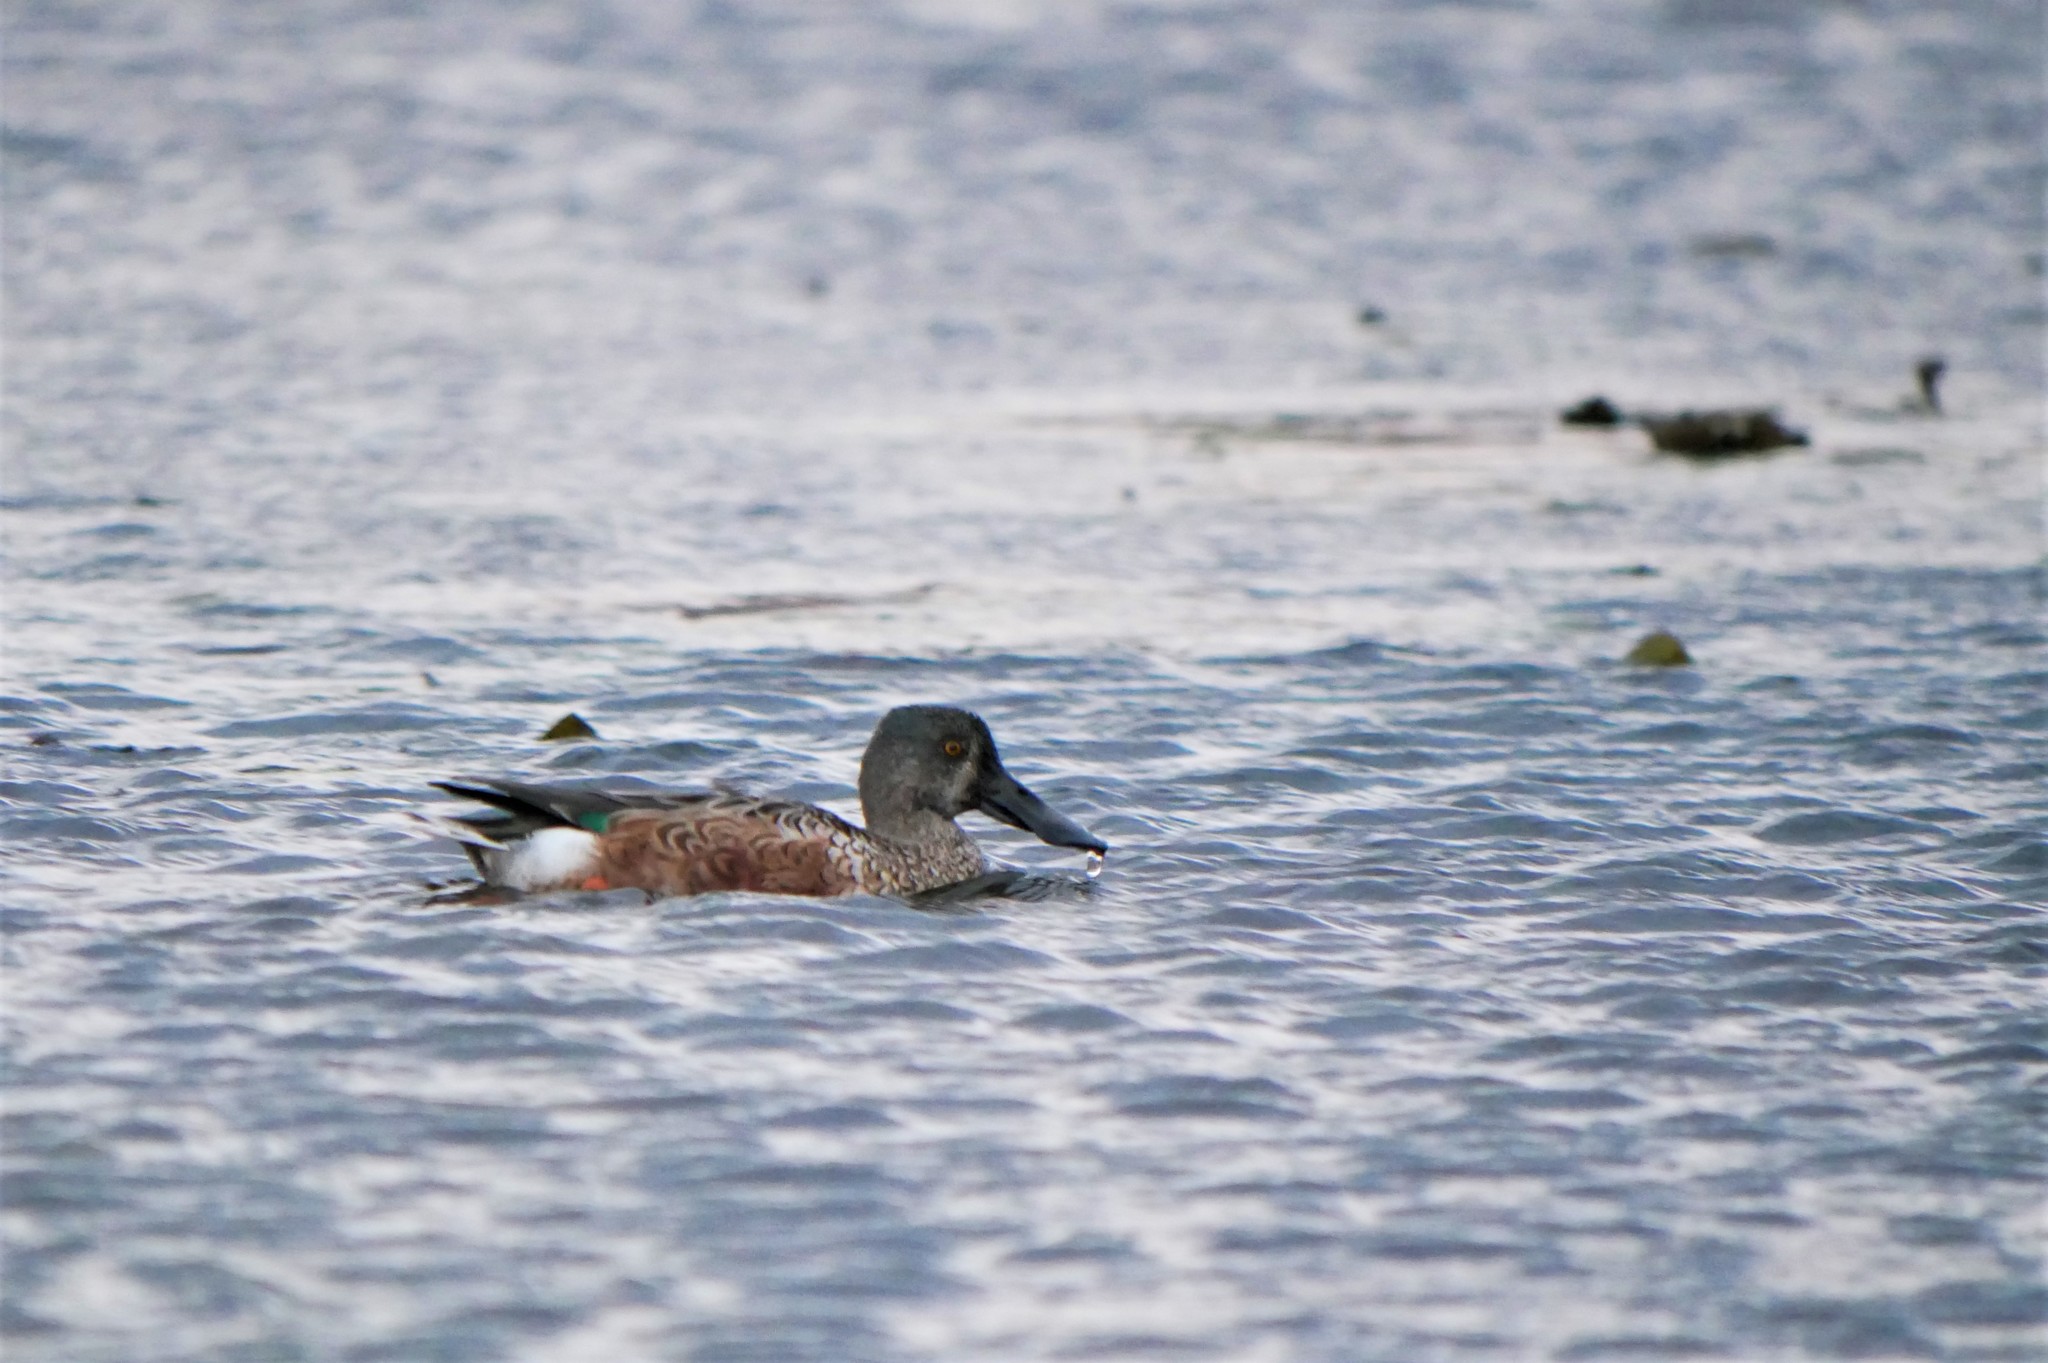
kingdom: Animalia
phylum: Chordata
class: Aves
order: Anseriformes
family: Anatidae
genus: Spatula
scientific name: Spatula clypeata
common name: Northern shoveler
